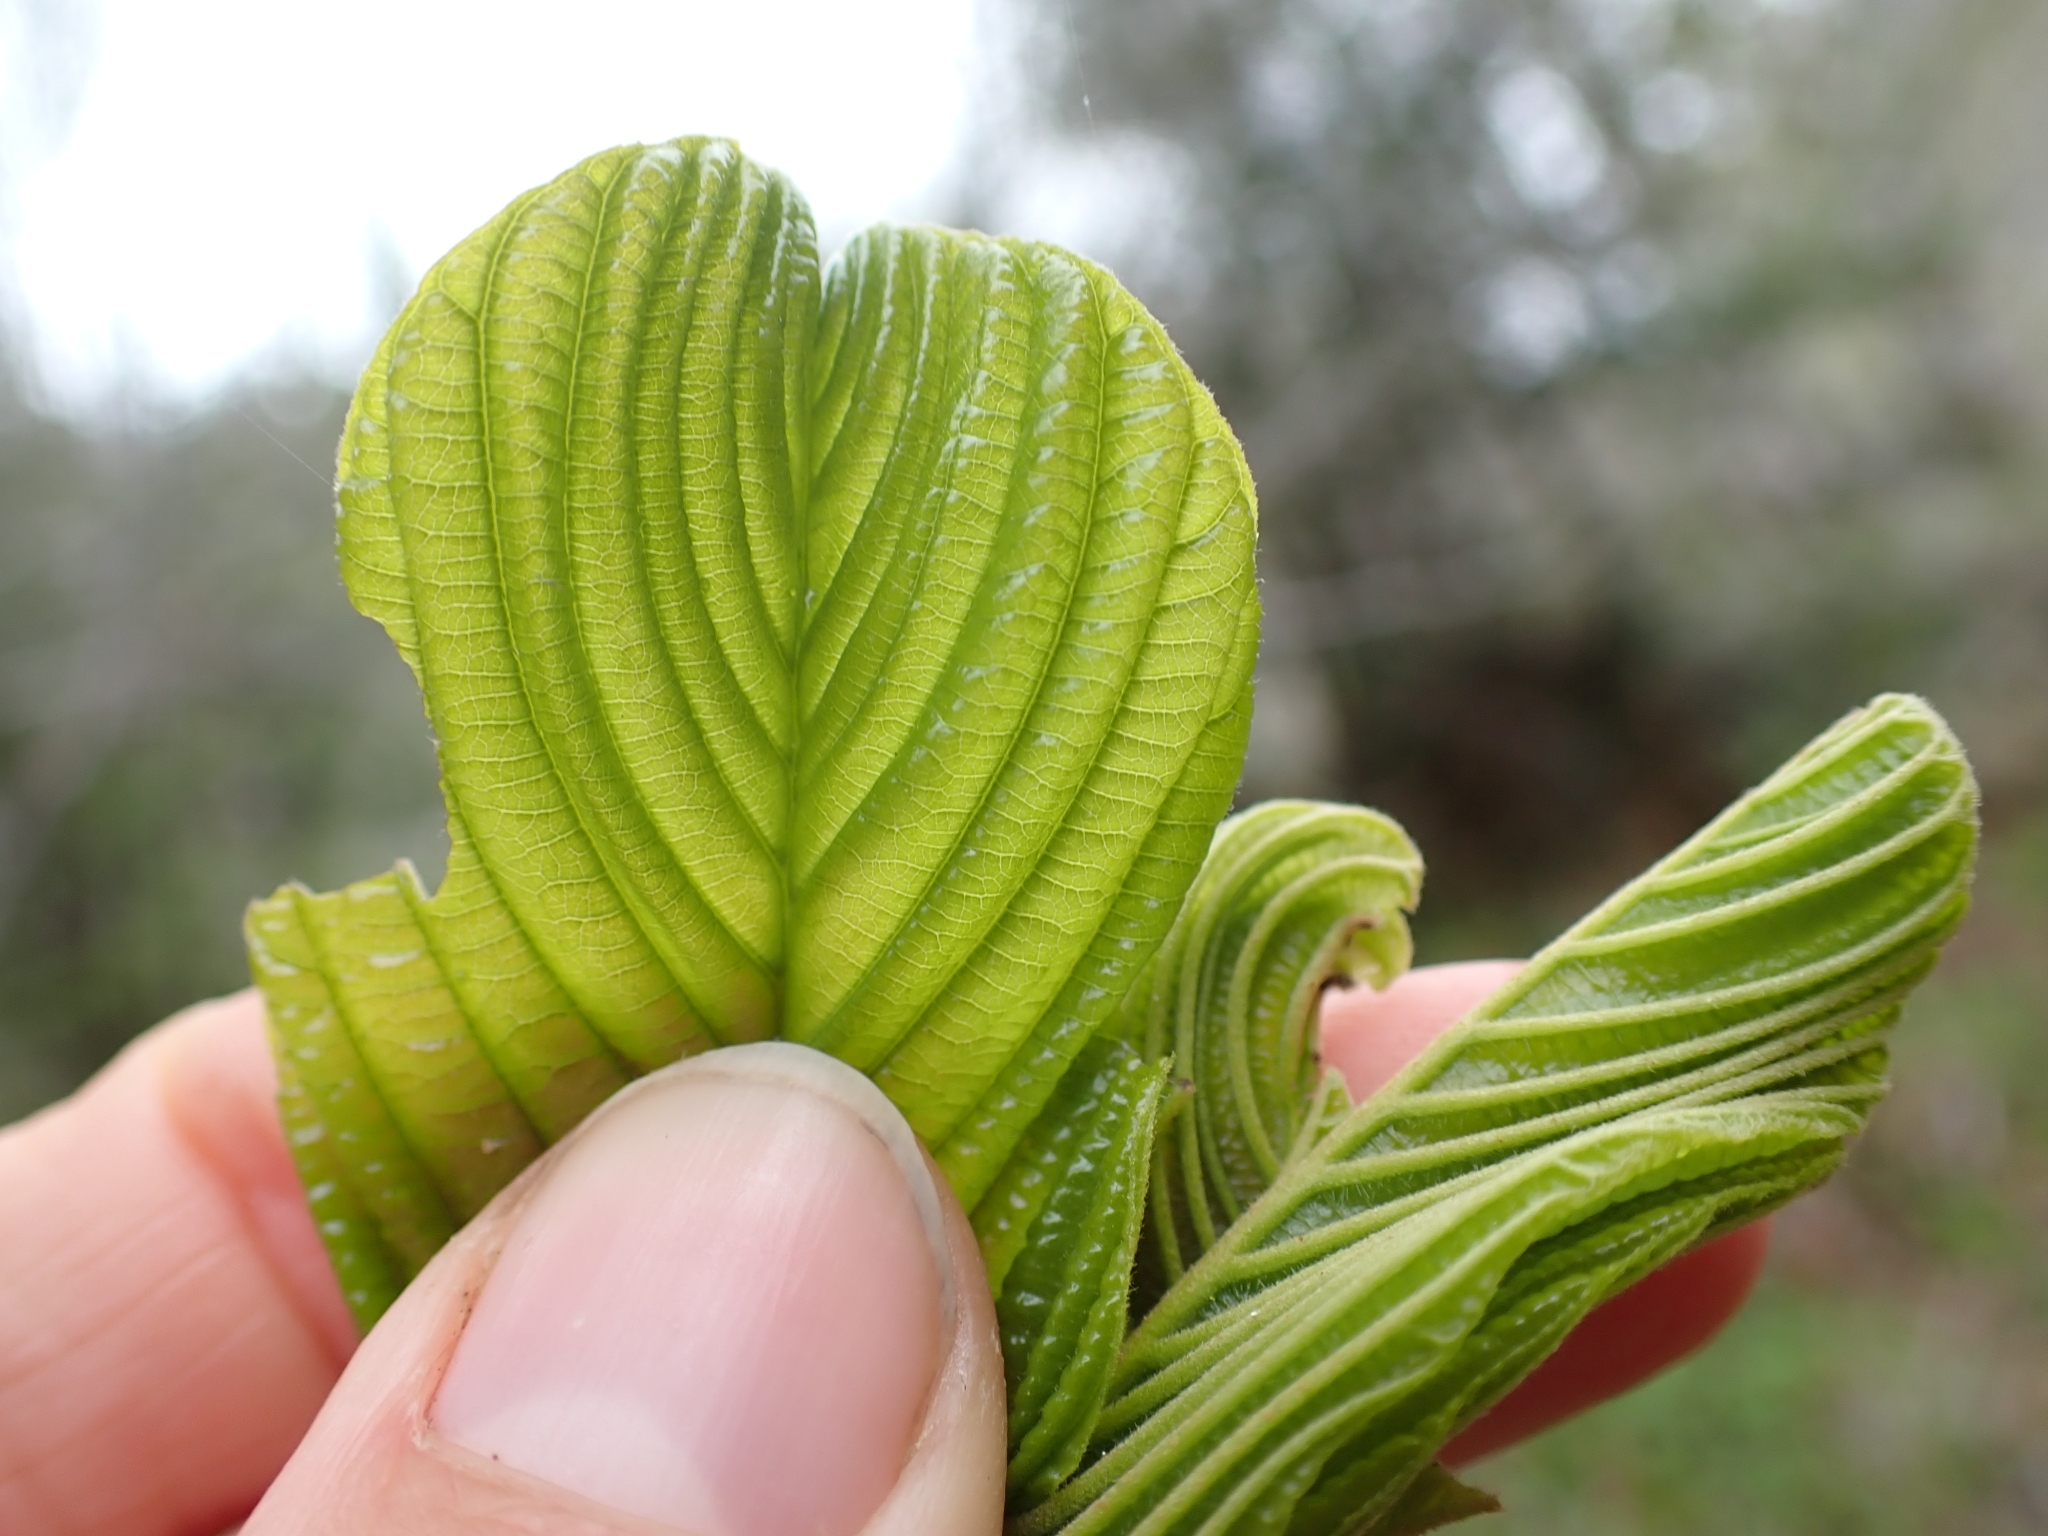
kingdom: Plantae
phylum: Tracheophyta
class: Magnoliopsida
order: Rosales
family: Rhamnaceae
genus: Frangula
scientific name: Frangula purshiana
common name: Cascara buckthorn
